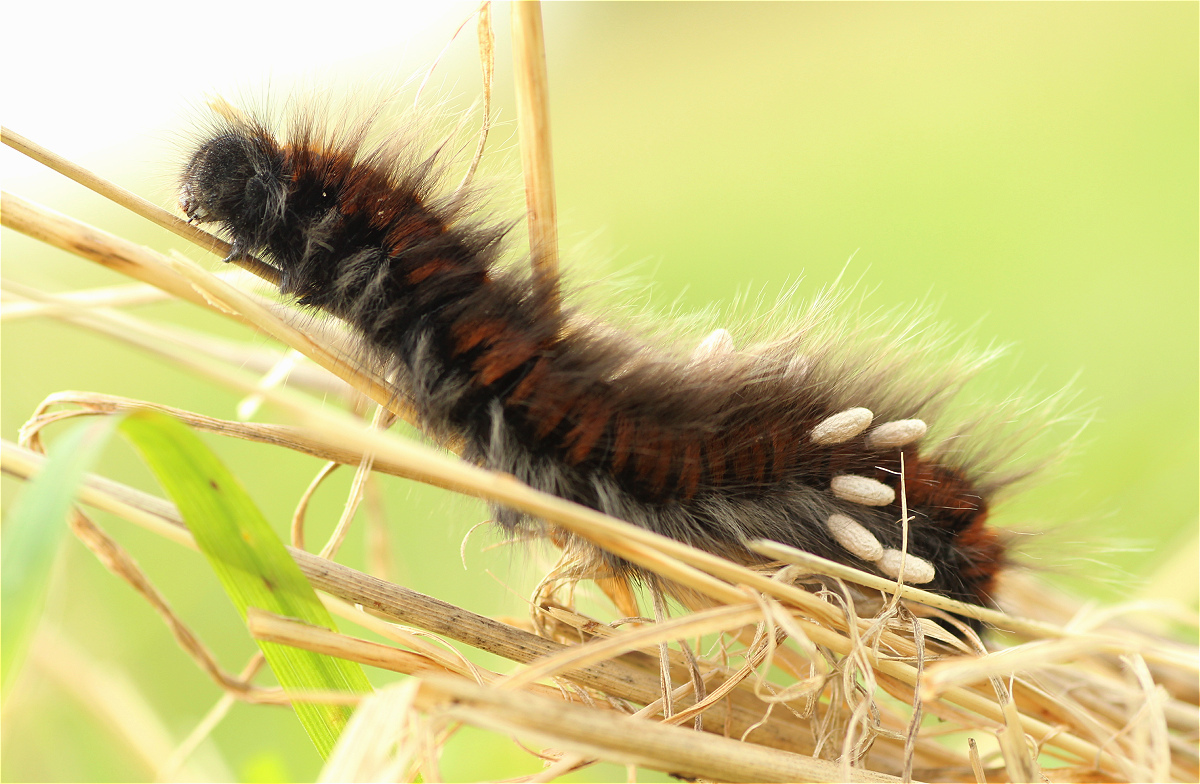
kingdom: Animalia
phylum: Arthropoda
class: Insecta
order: Lepidoptera
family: Lasiocampidae
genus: Macrothylacia
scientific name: Macrothylacia rubi
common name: Fox moth
